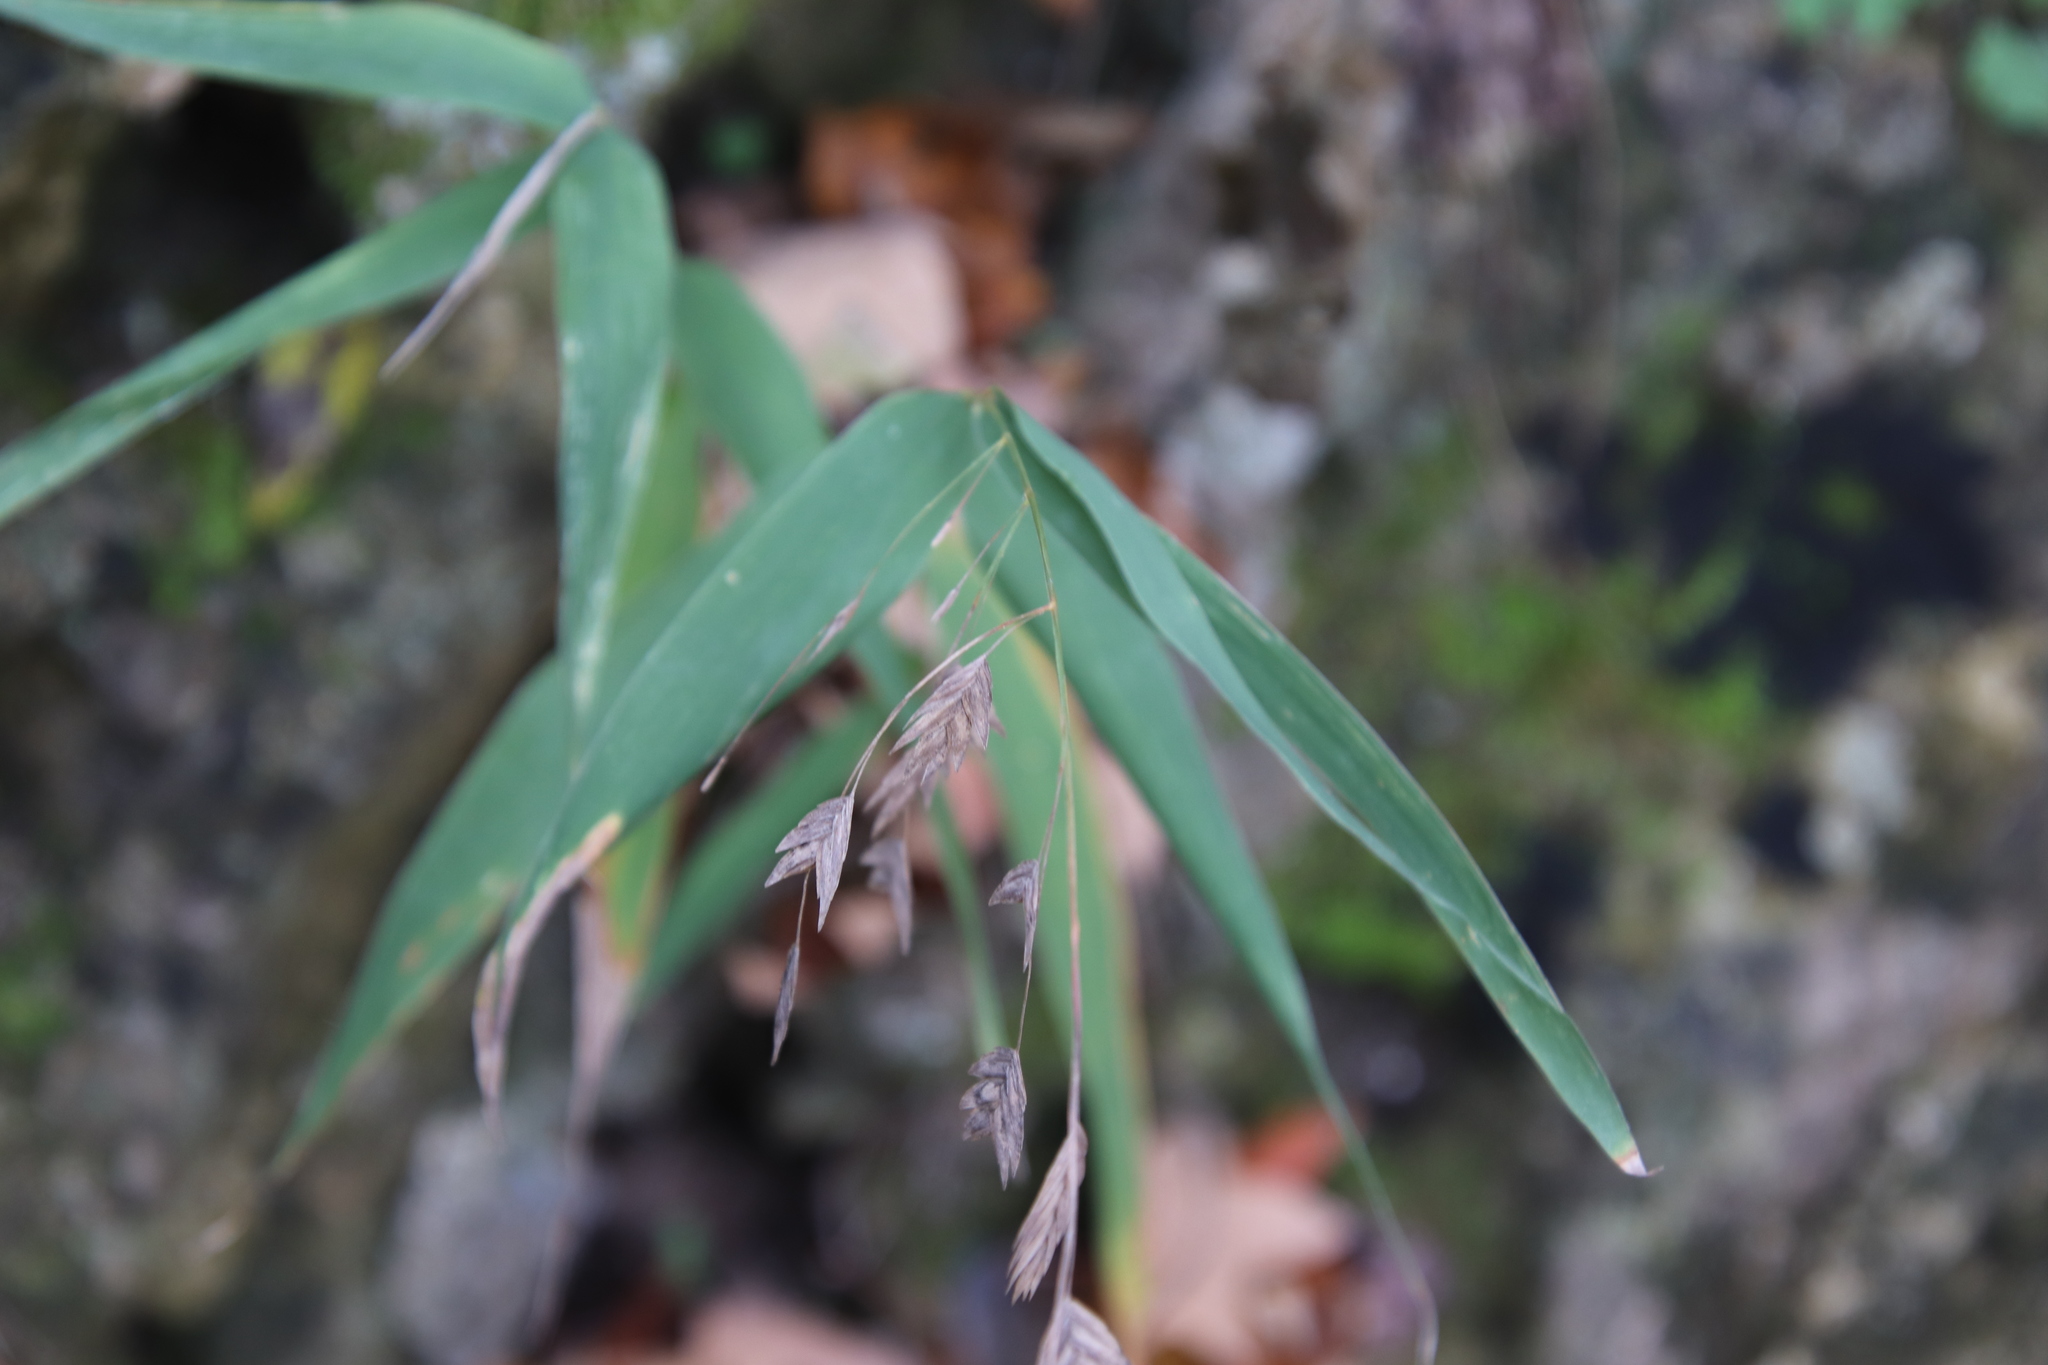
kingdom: Plantae
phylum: Tracheophyta
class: Liliopsida
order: Poales
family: Poaceae
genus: Chasmanthium
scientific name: Chasmanthium latifolium
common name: Broad-leaved chasmanthium
